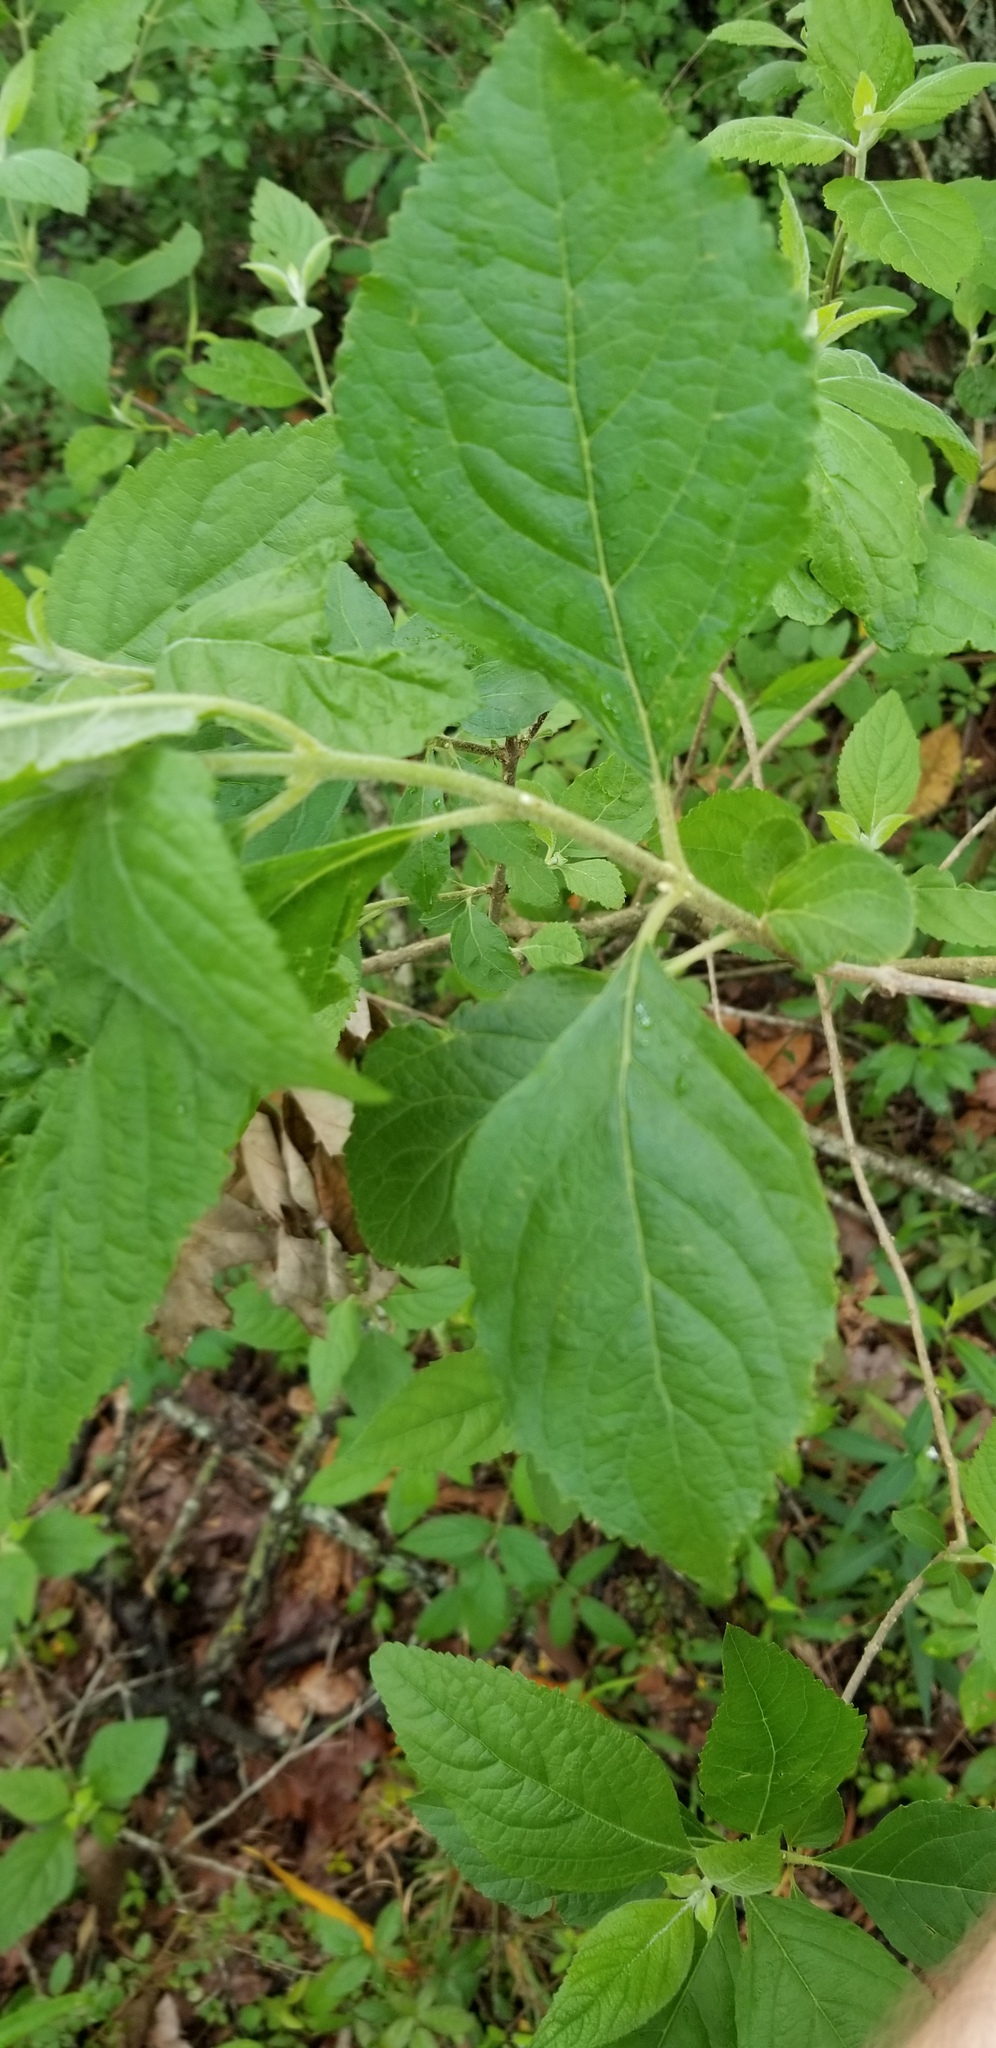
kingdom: Plantae
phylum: Tracheophyta
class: Magnoliopsida
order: Lamiales
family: Lamiaceae
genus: Callicarpa
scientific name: Callicarpa americana
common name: American beautyberry
